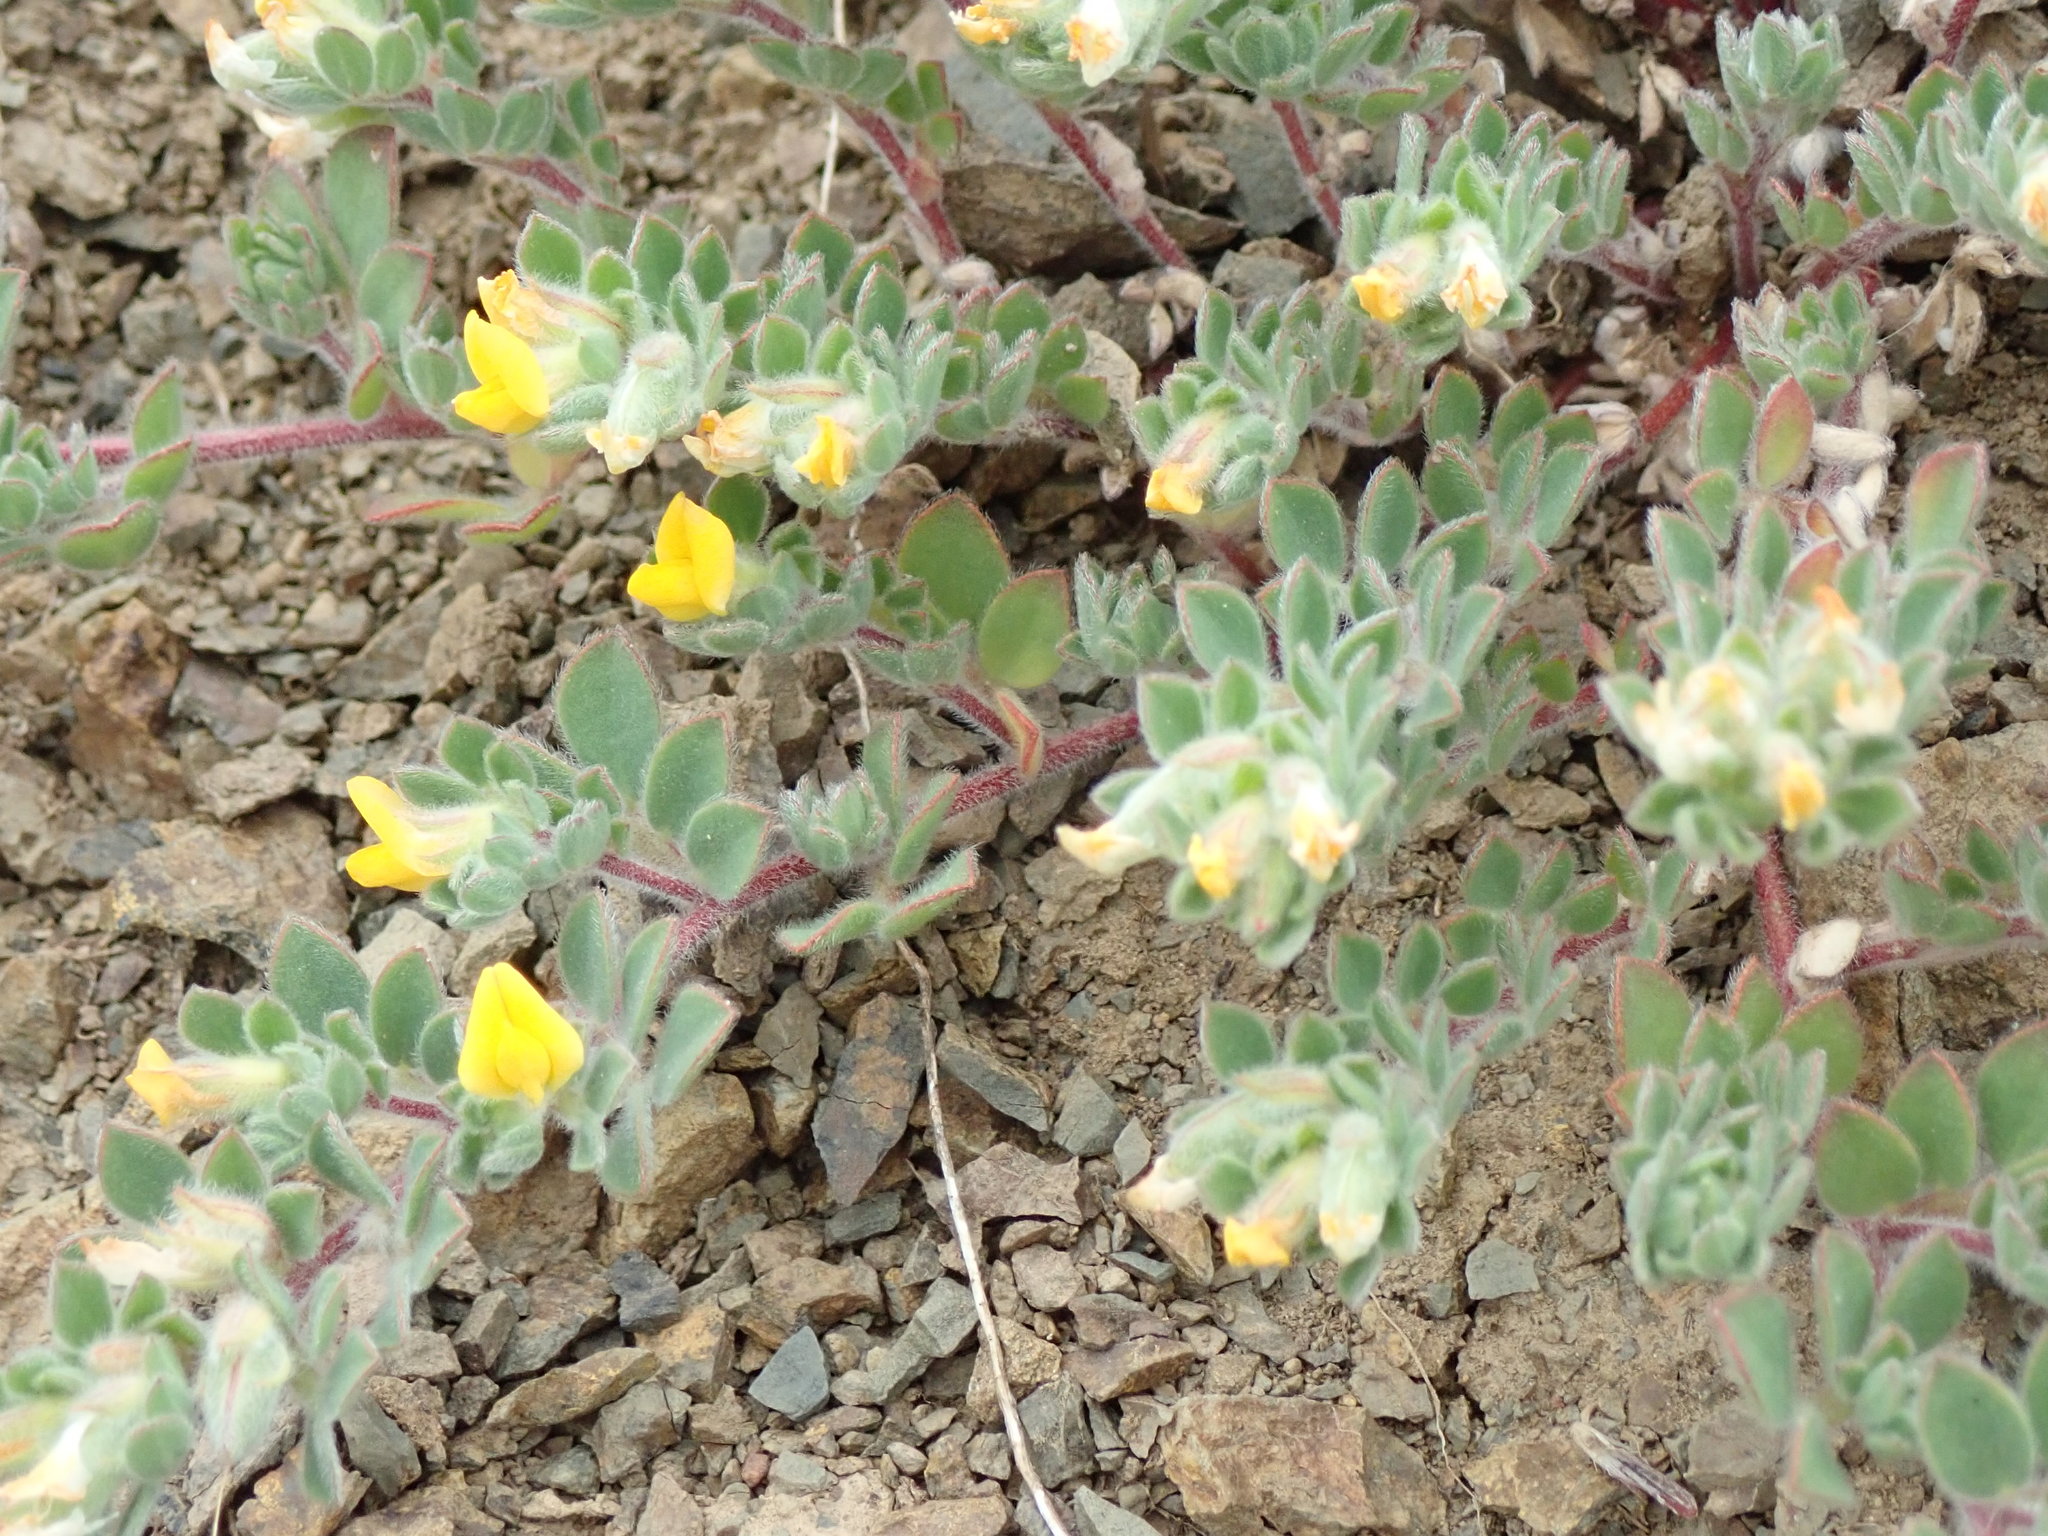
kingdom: Plantae
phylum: Tracheophyta
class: Magnoliopsida
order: Fabales
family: Fabaceae
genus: Acmispon
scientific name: Acmispon brachycarpus
